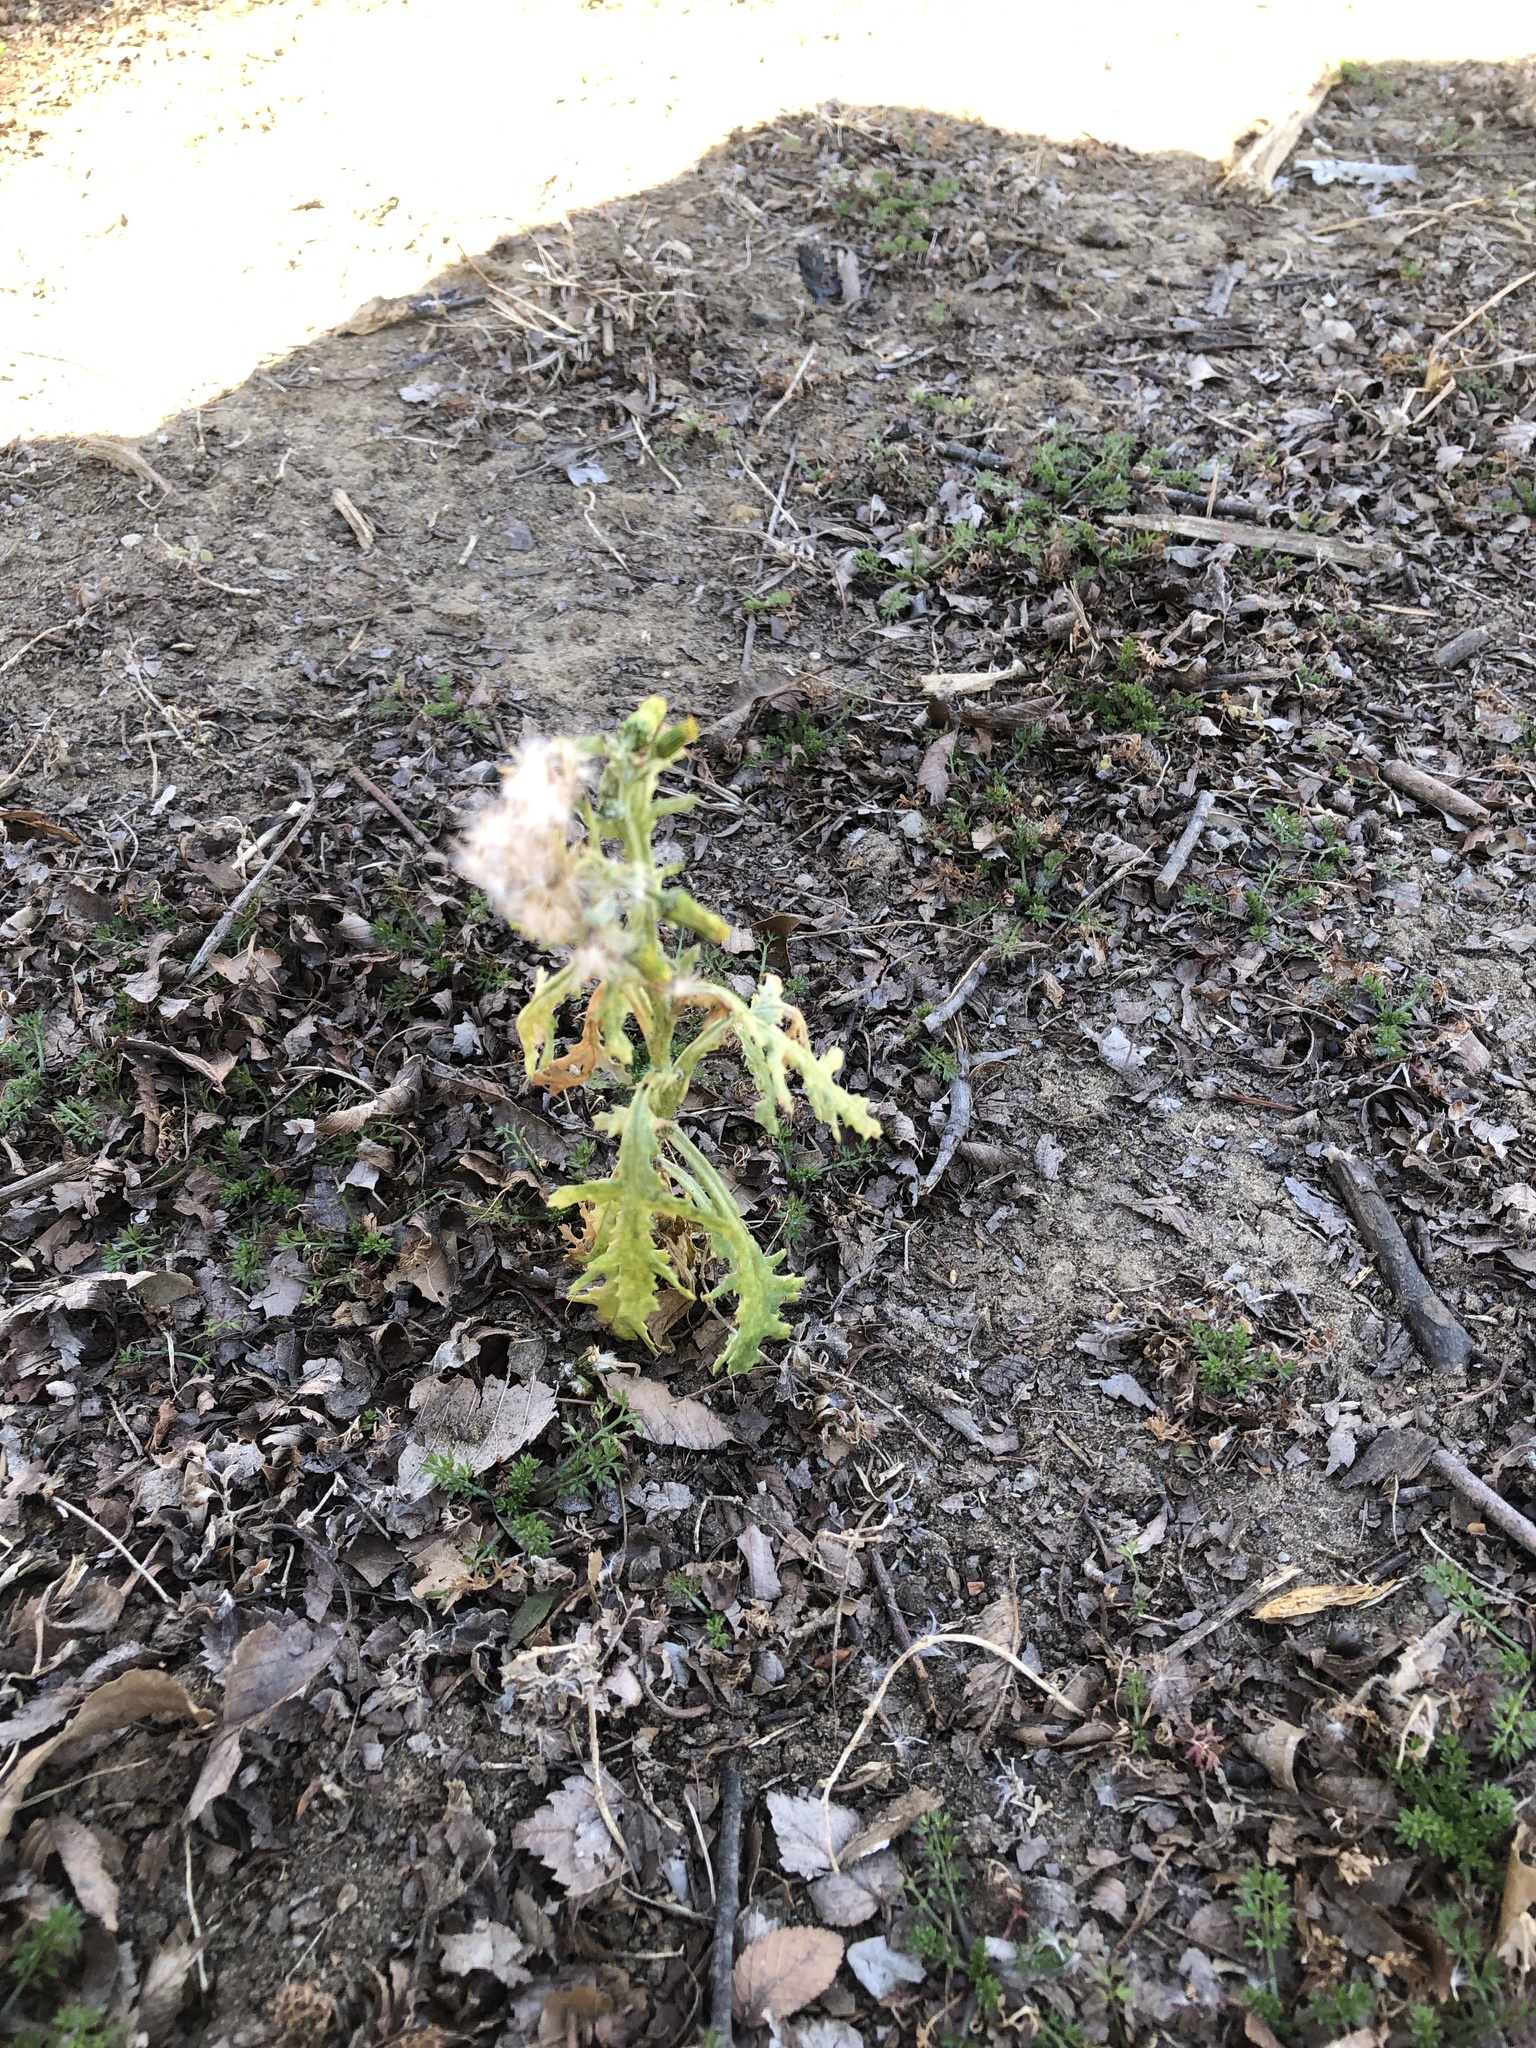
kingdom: Plantae
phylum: Tracheophyta
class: Magnoliopsida
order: Asterales
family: Asteraceae
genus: Senecio
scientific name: Senecio vulgaris
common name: Old-man-in-the-spring
